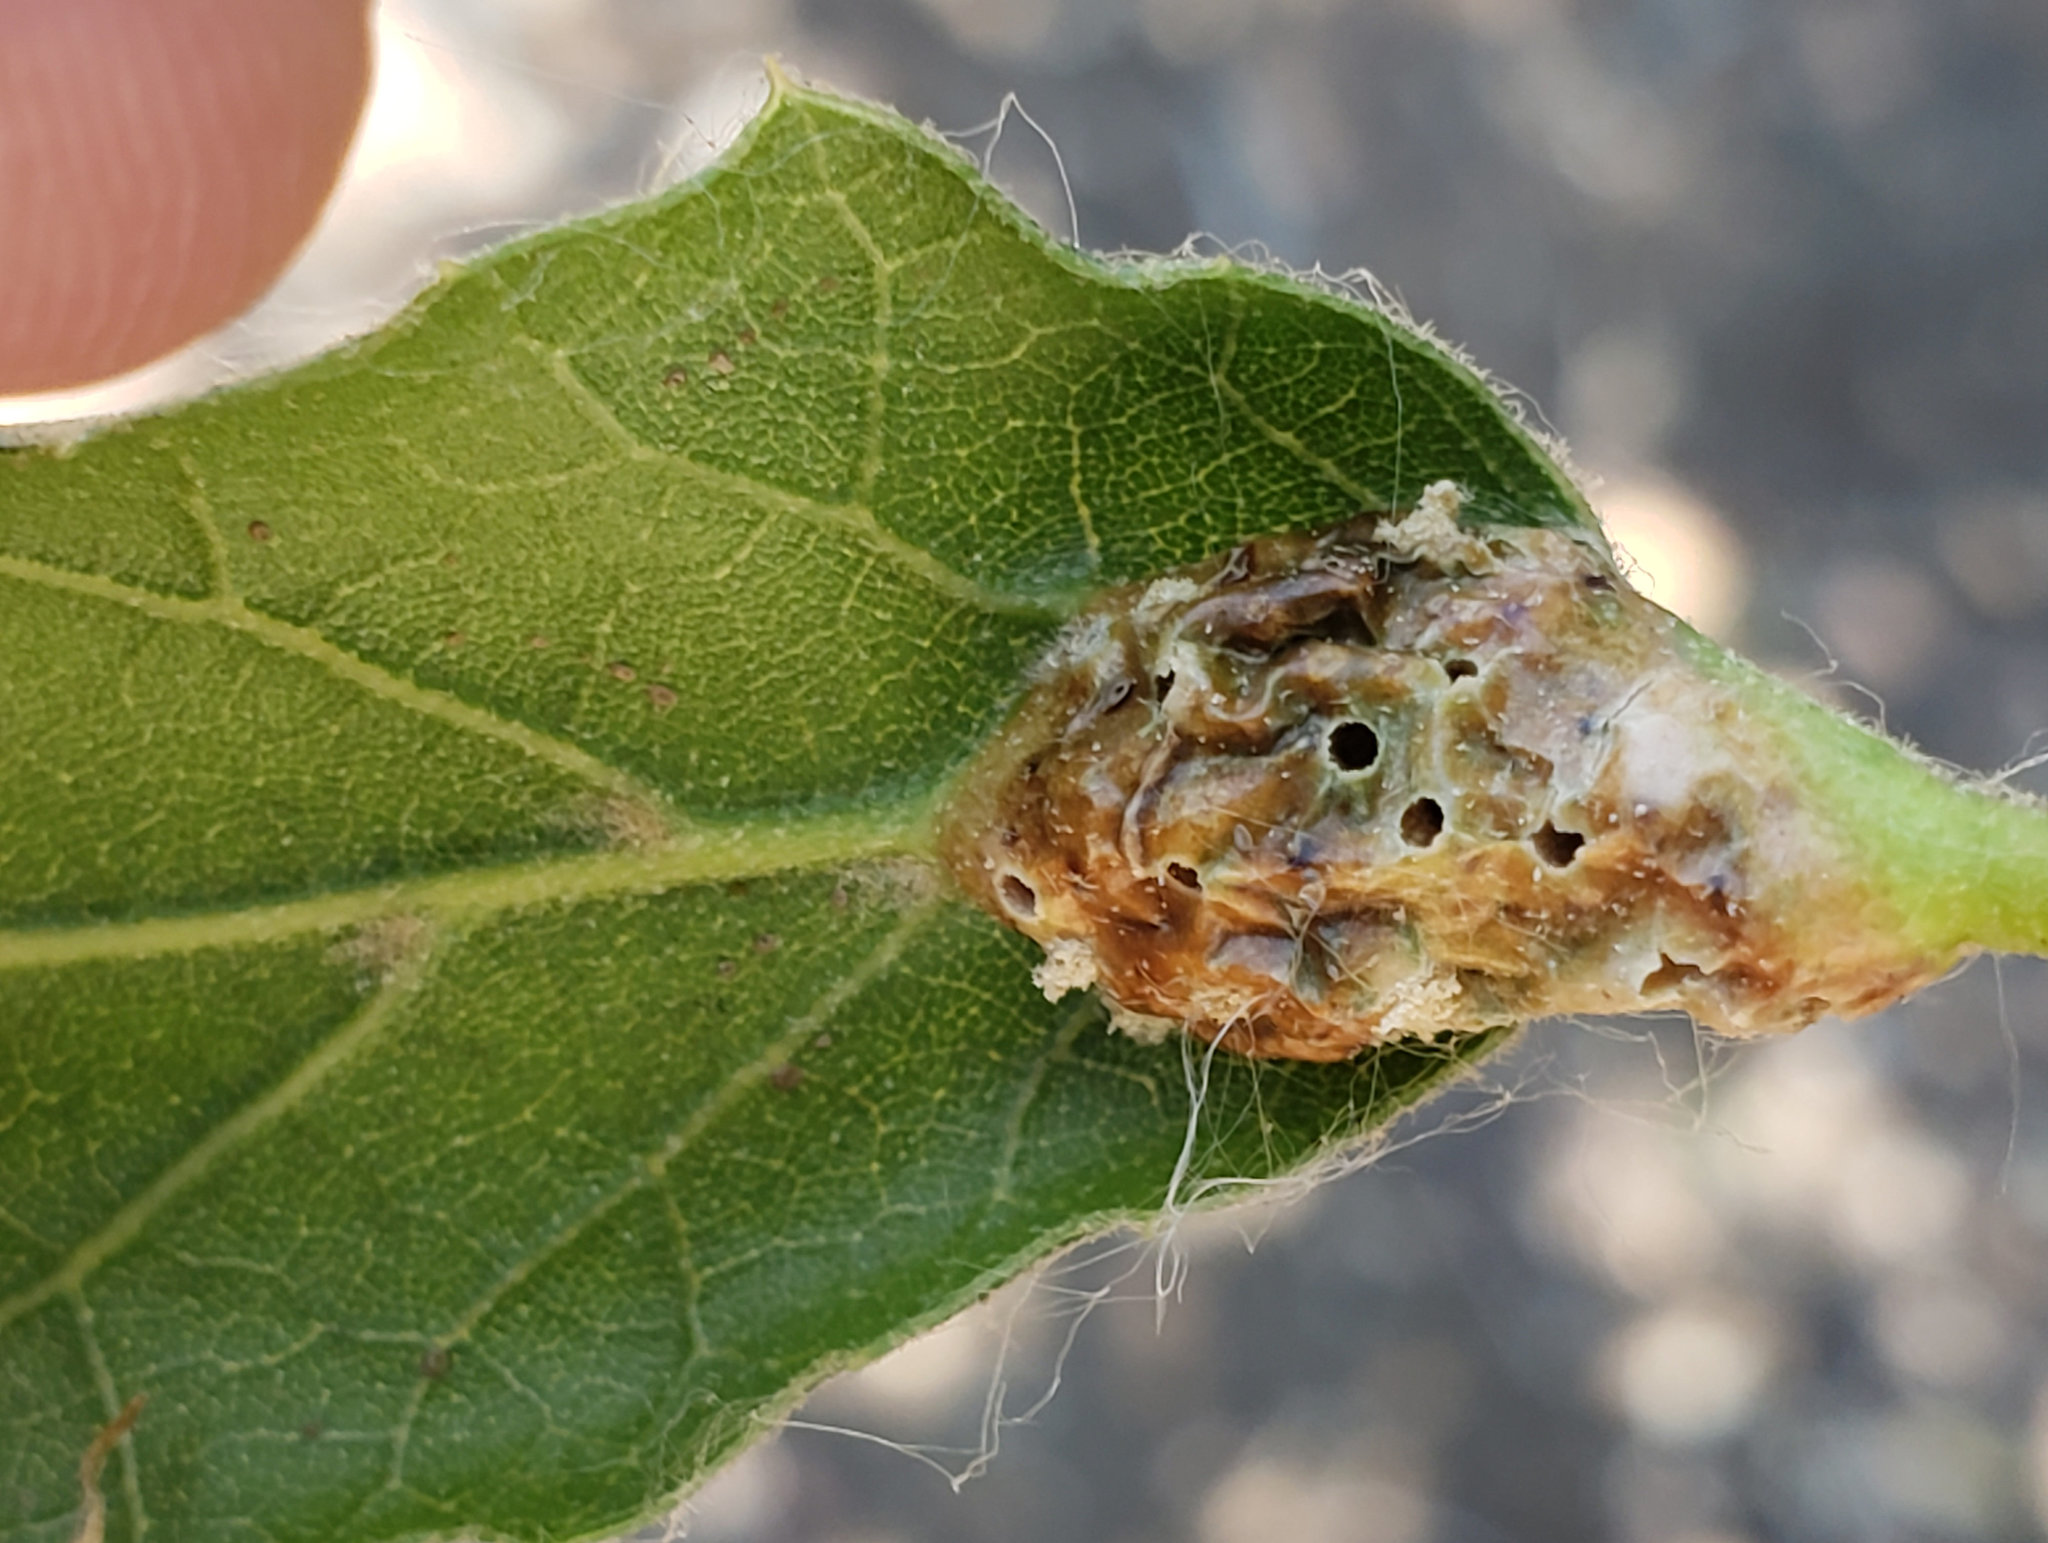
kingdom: Animalia
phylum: Arthropoda
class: Insecta
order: Hymenoptera
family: Cynipidae
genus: Melikaiella
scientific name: Melikaiella
